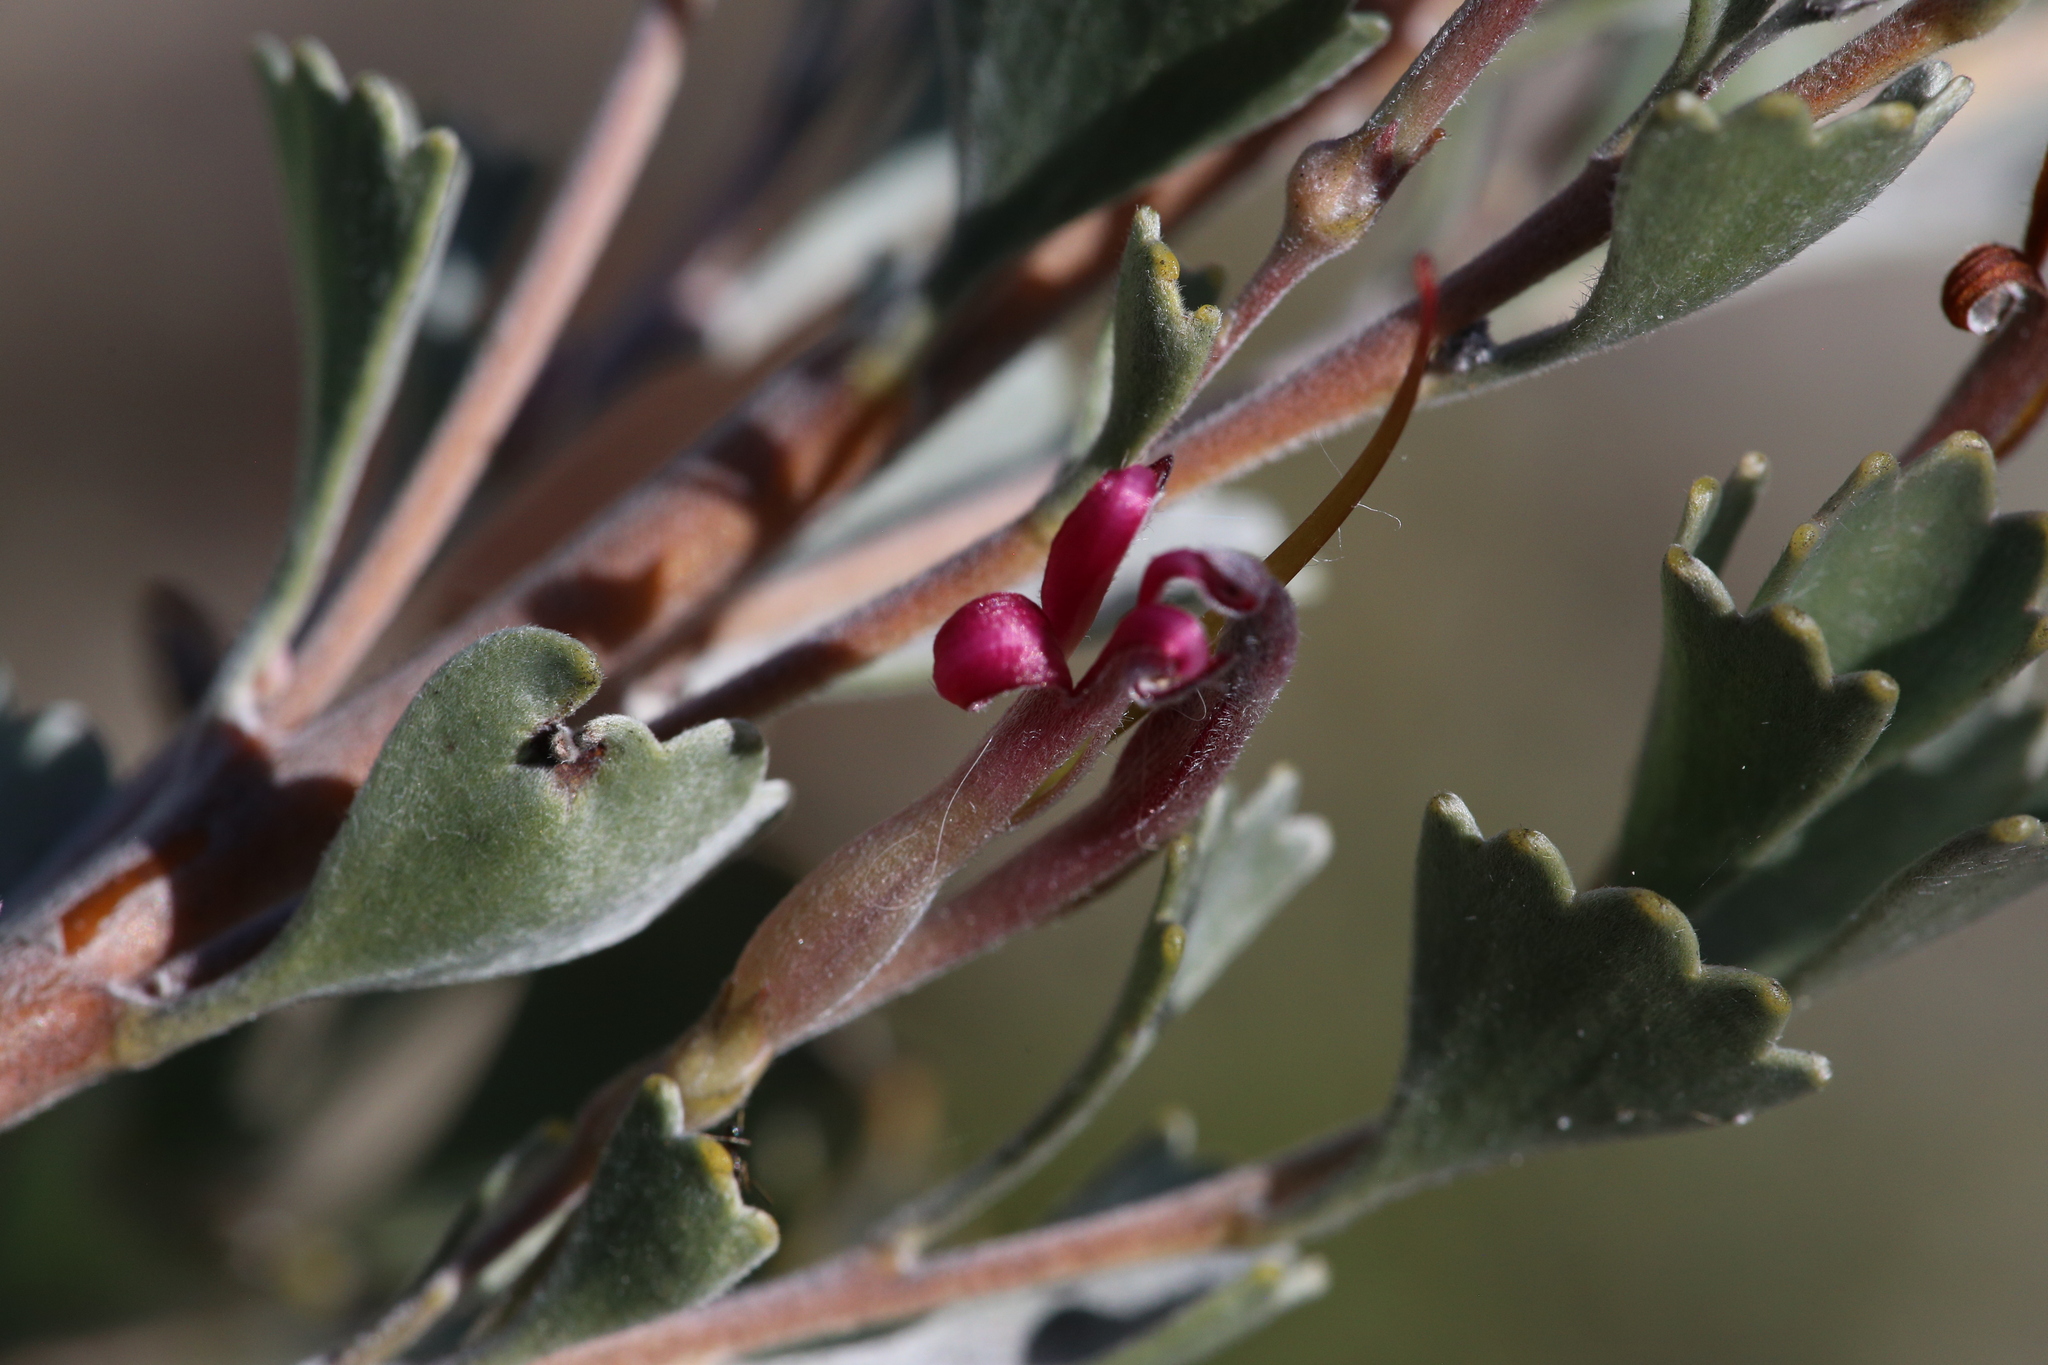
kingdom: Plantae
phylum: Tracheophyta
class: Magnoliopsida
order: Proteales
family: Proteaceae
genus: Adenanthos
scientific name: Adenanthos cuneatus
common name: Flamebush
